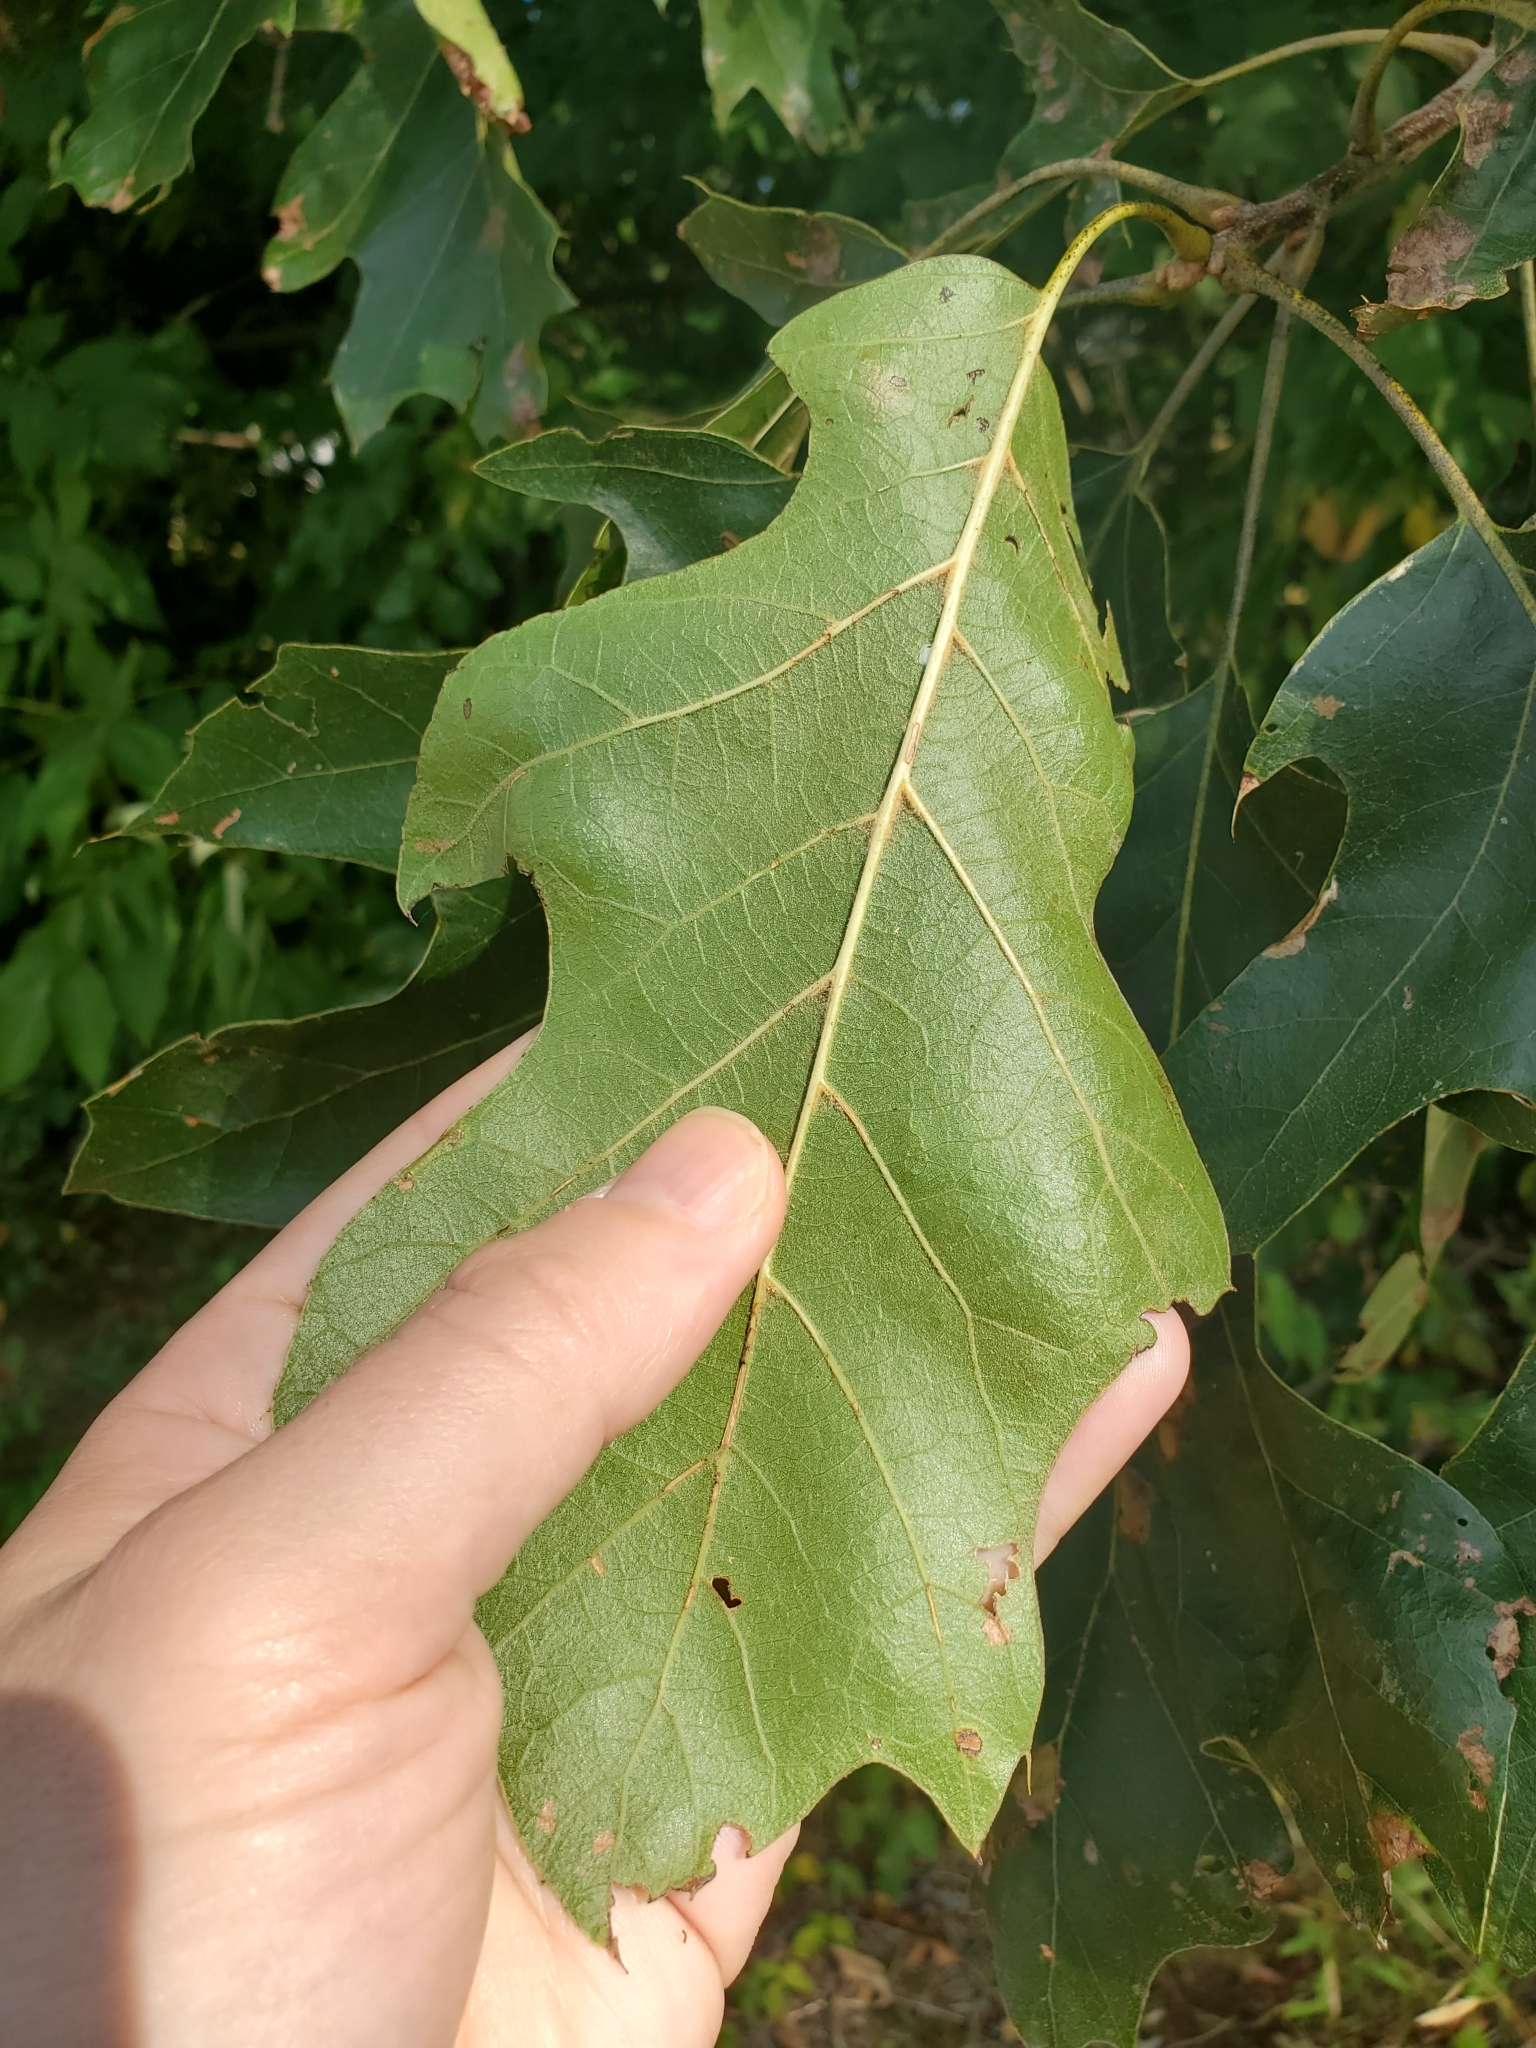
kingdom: Plantae
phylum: Tracheophyta
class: Magnoliopsida
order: Fagales
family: Fagaceae
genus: Quercus
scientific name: Quercus velutina
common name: Black oak
